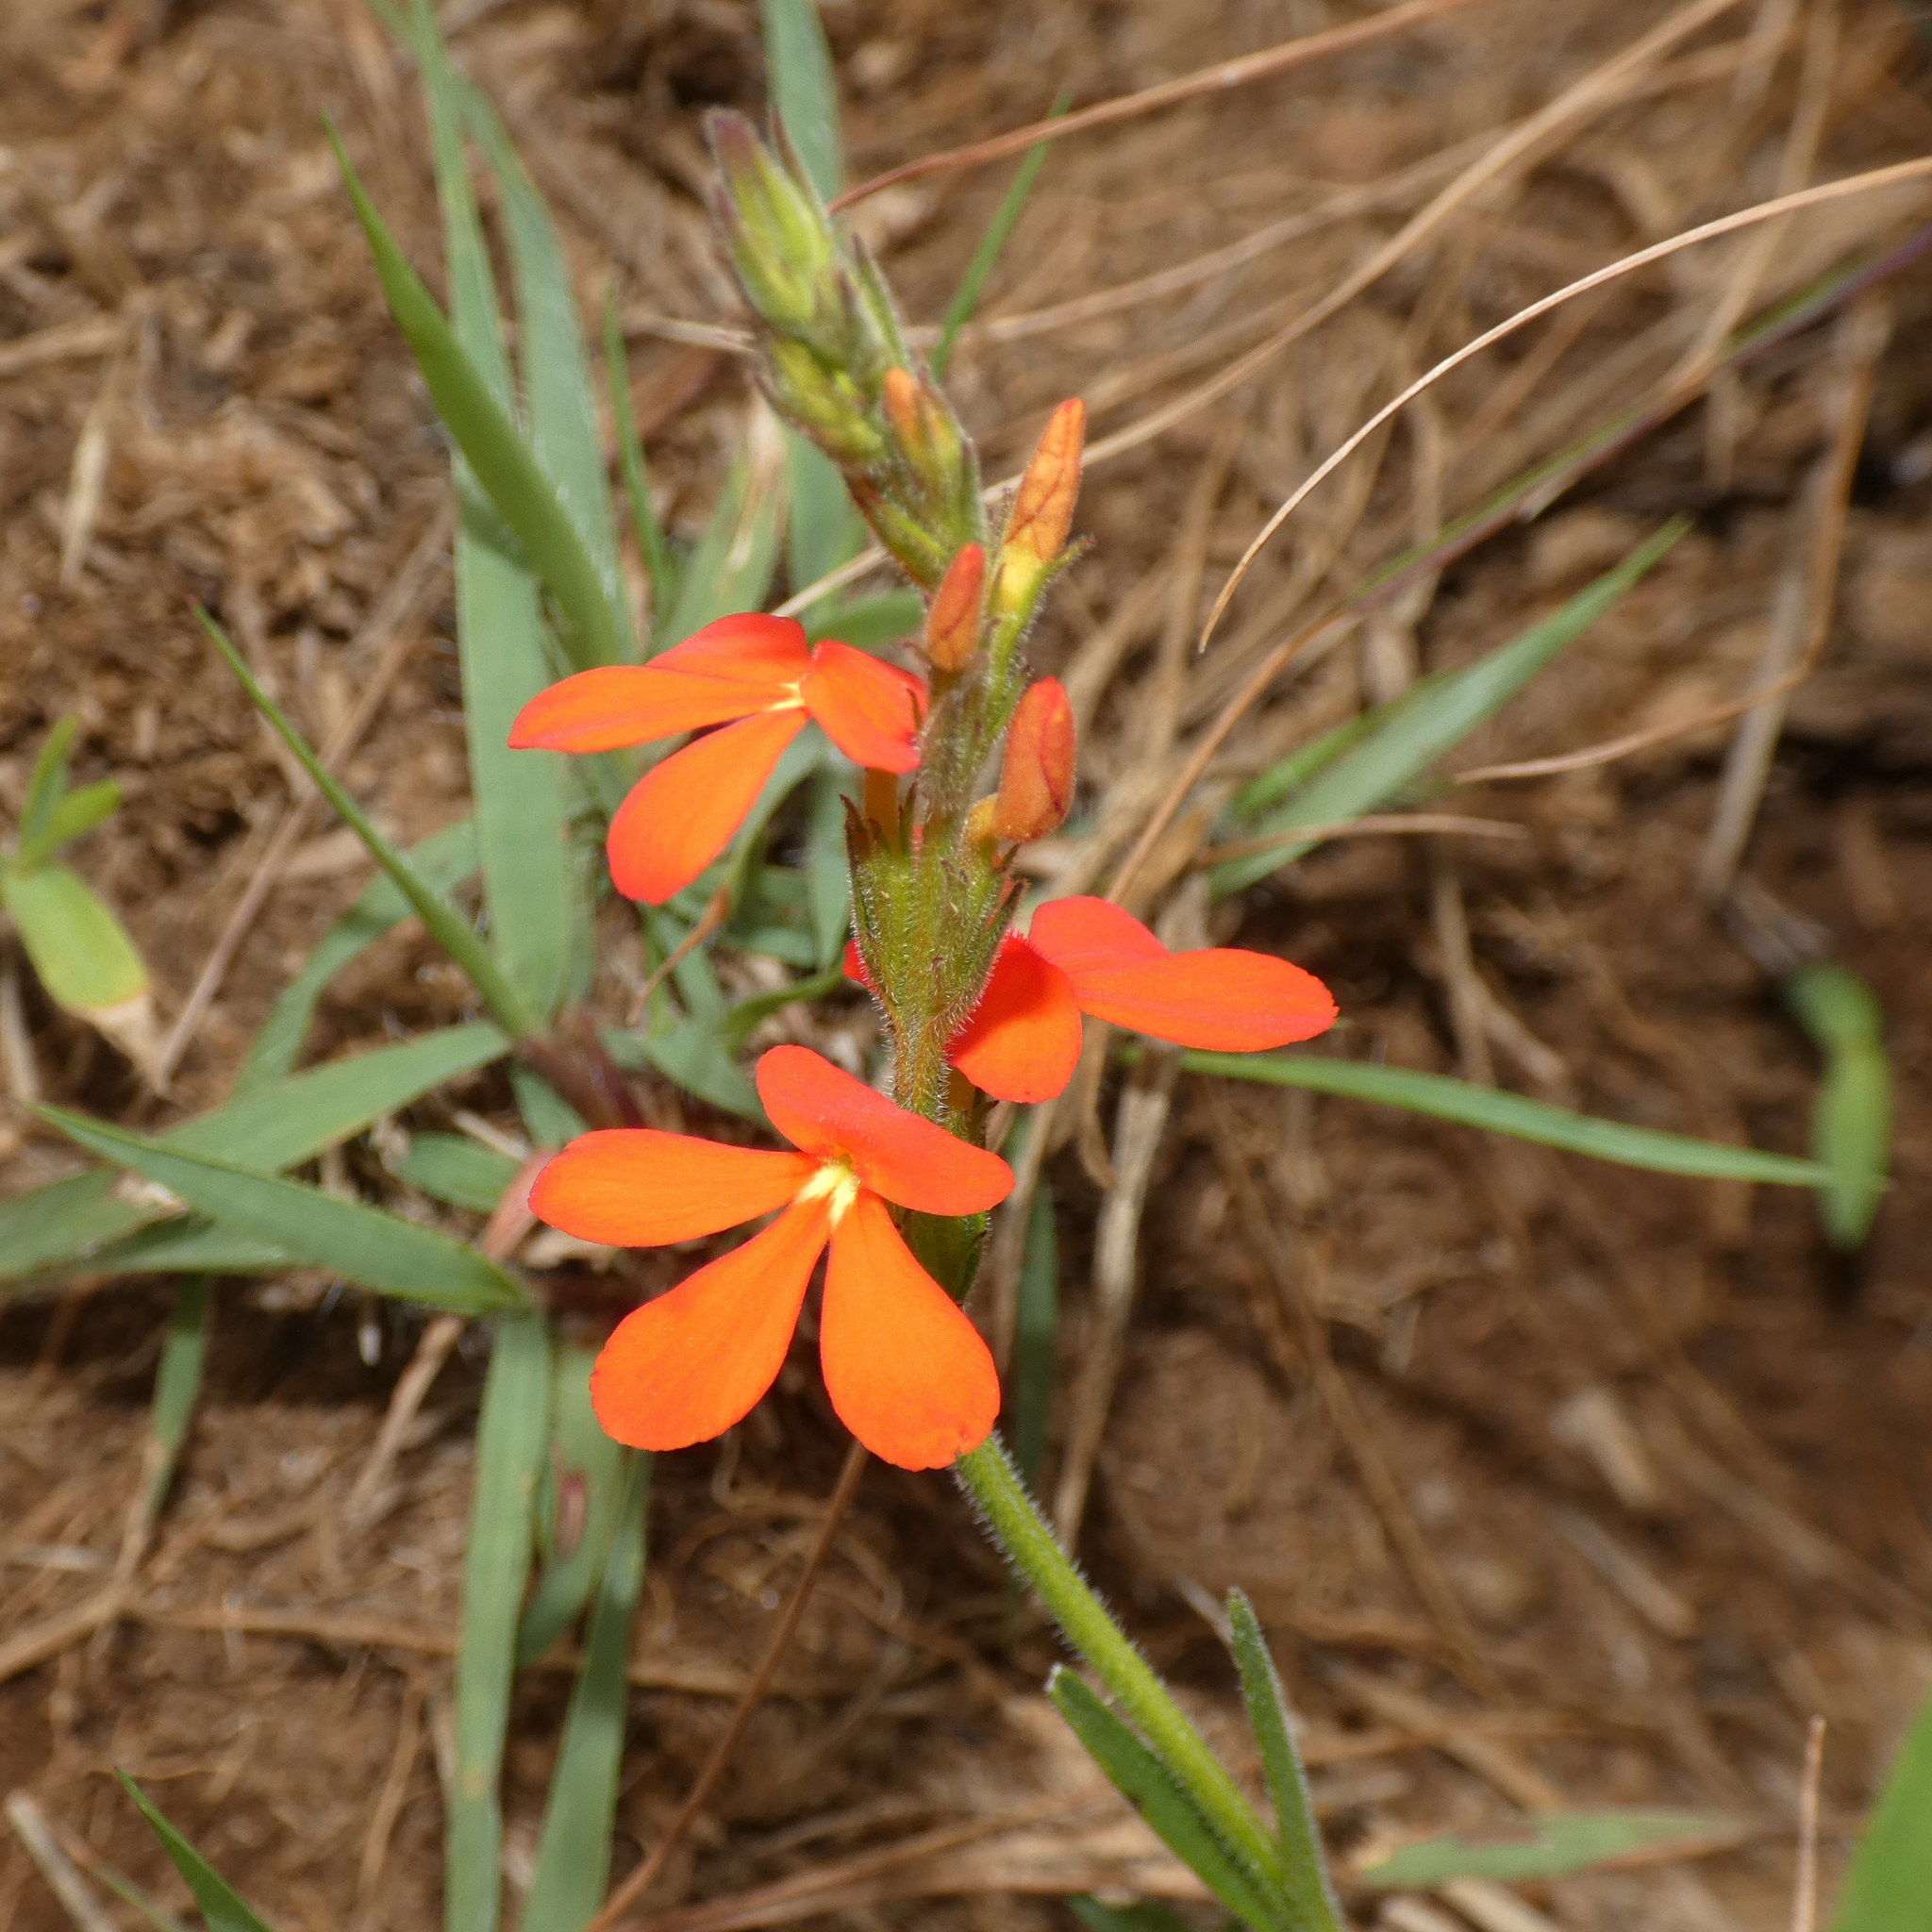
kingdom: Plantae
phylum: Tracheophyta
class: Magnoliopsida
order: Lamiales
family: Orobanchaceae
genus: Striga
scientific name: Striga elegans
